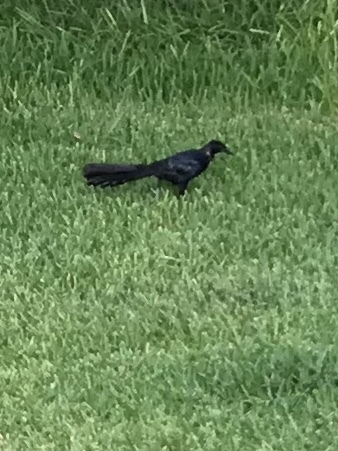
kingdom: Animalia
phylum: Chordata
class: Aves
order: Passeriformes
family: Icteridae
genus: Quiscalus
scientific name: Quiscalus mexicanus
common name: Great-tailed grackle
